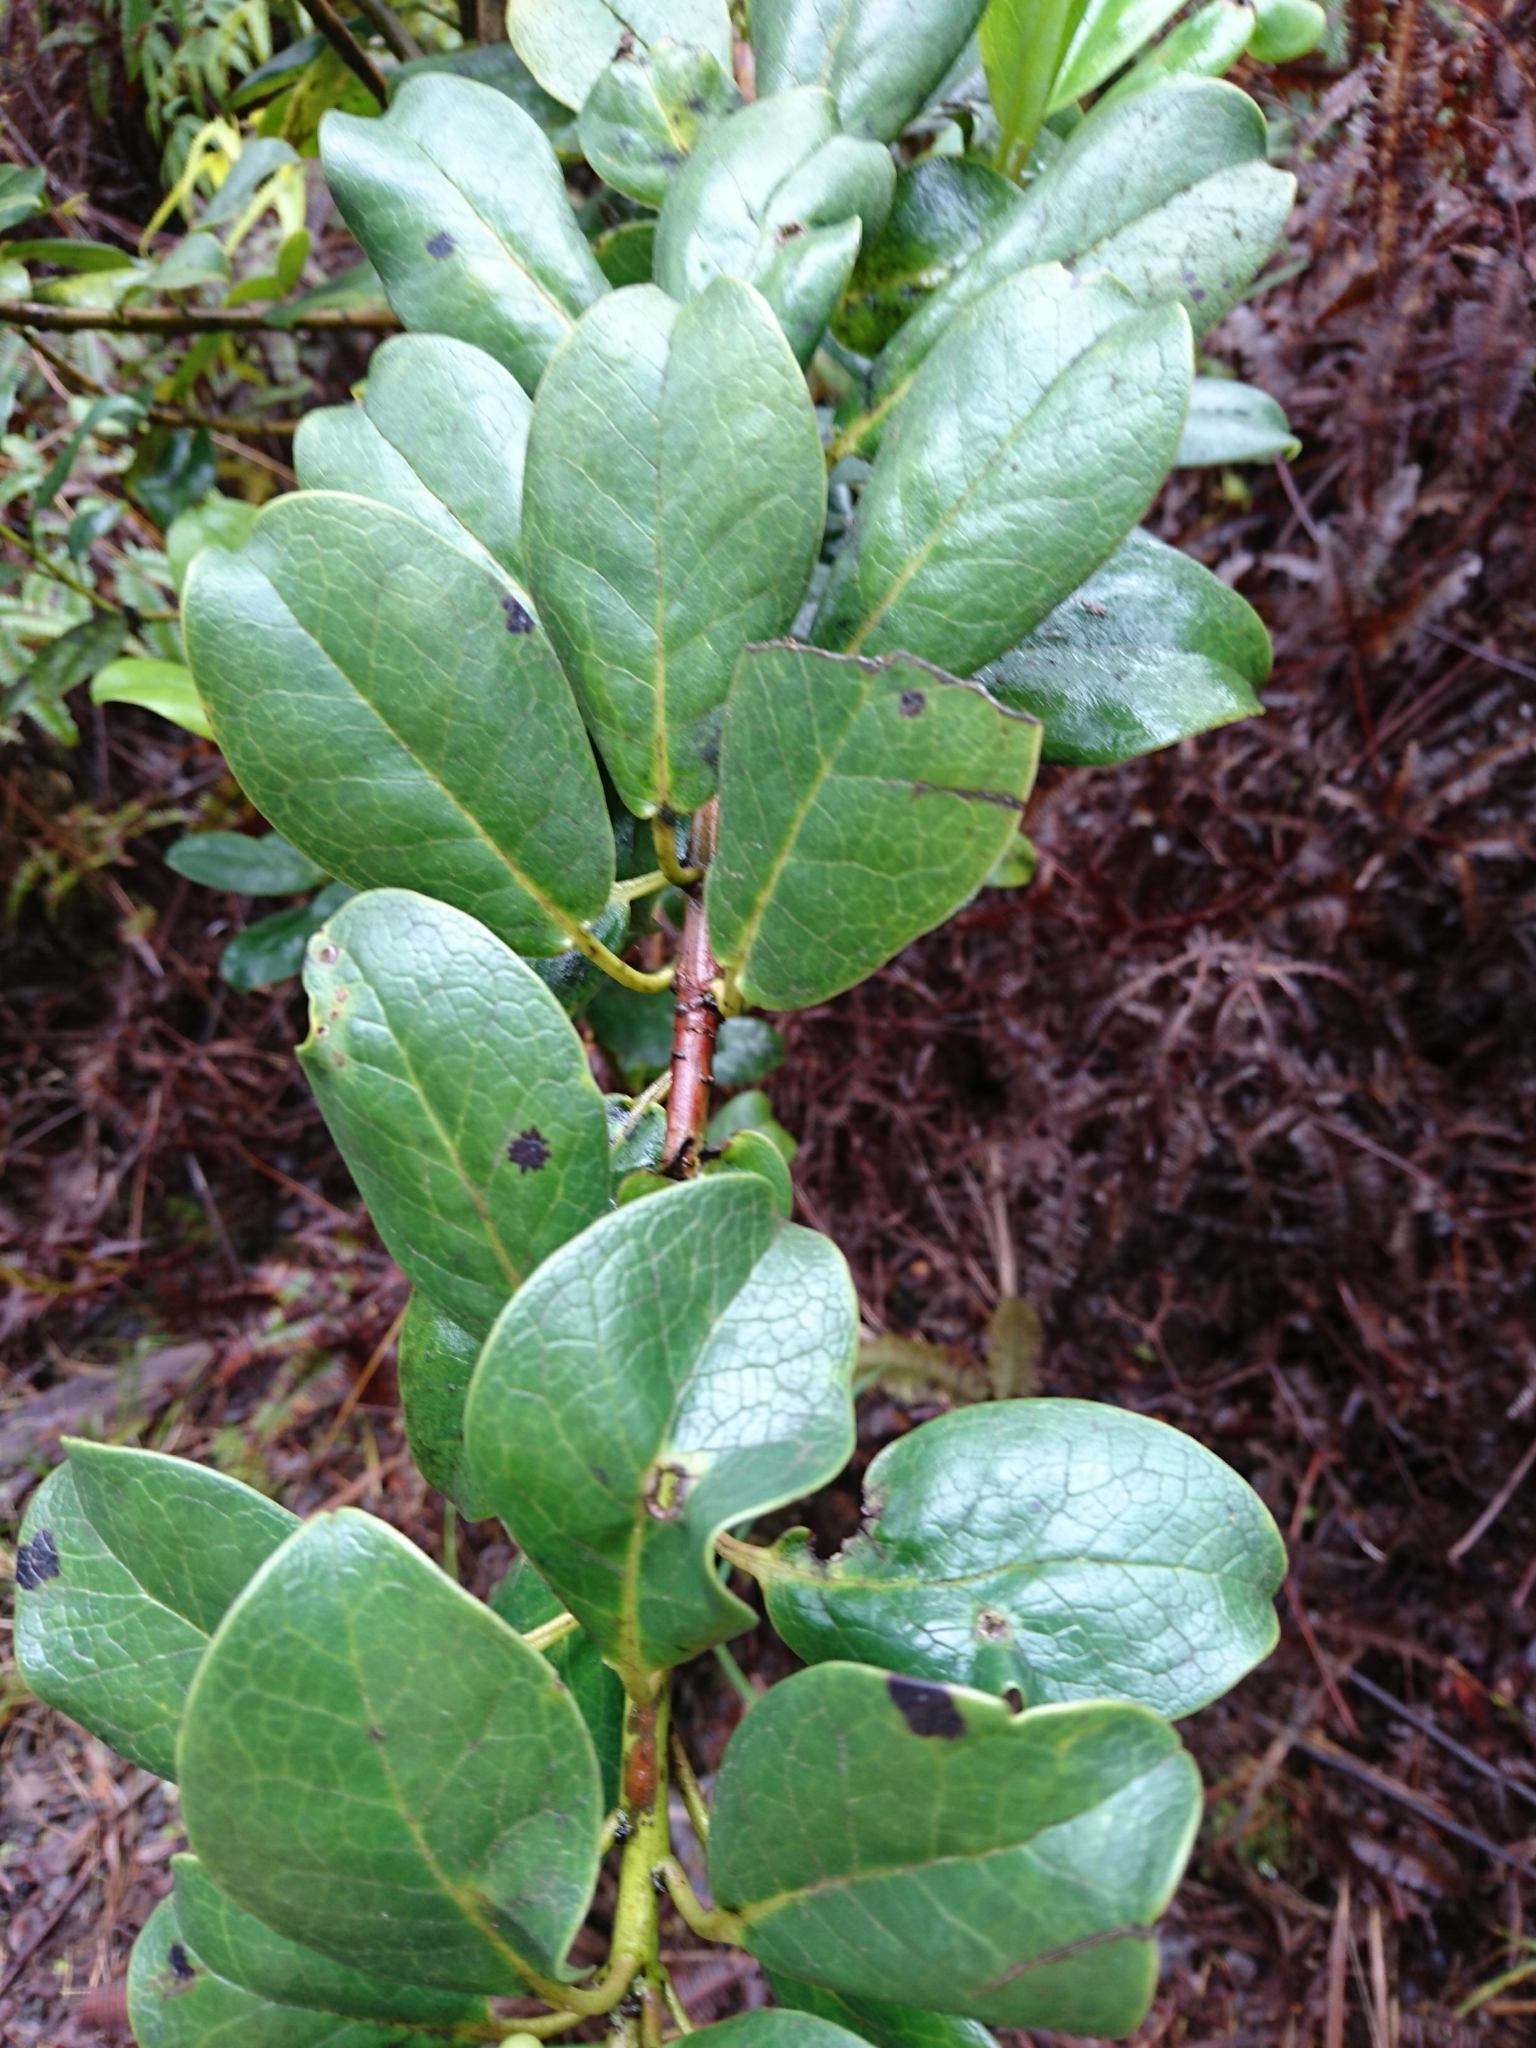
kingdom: Plantae
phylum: Tracheophyta
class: Magnoliopsida
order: Aquifoliales
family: Aquifoliaceae
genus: Ilex
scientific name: Ilex anomala
